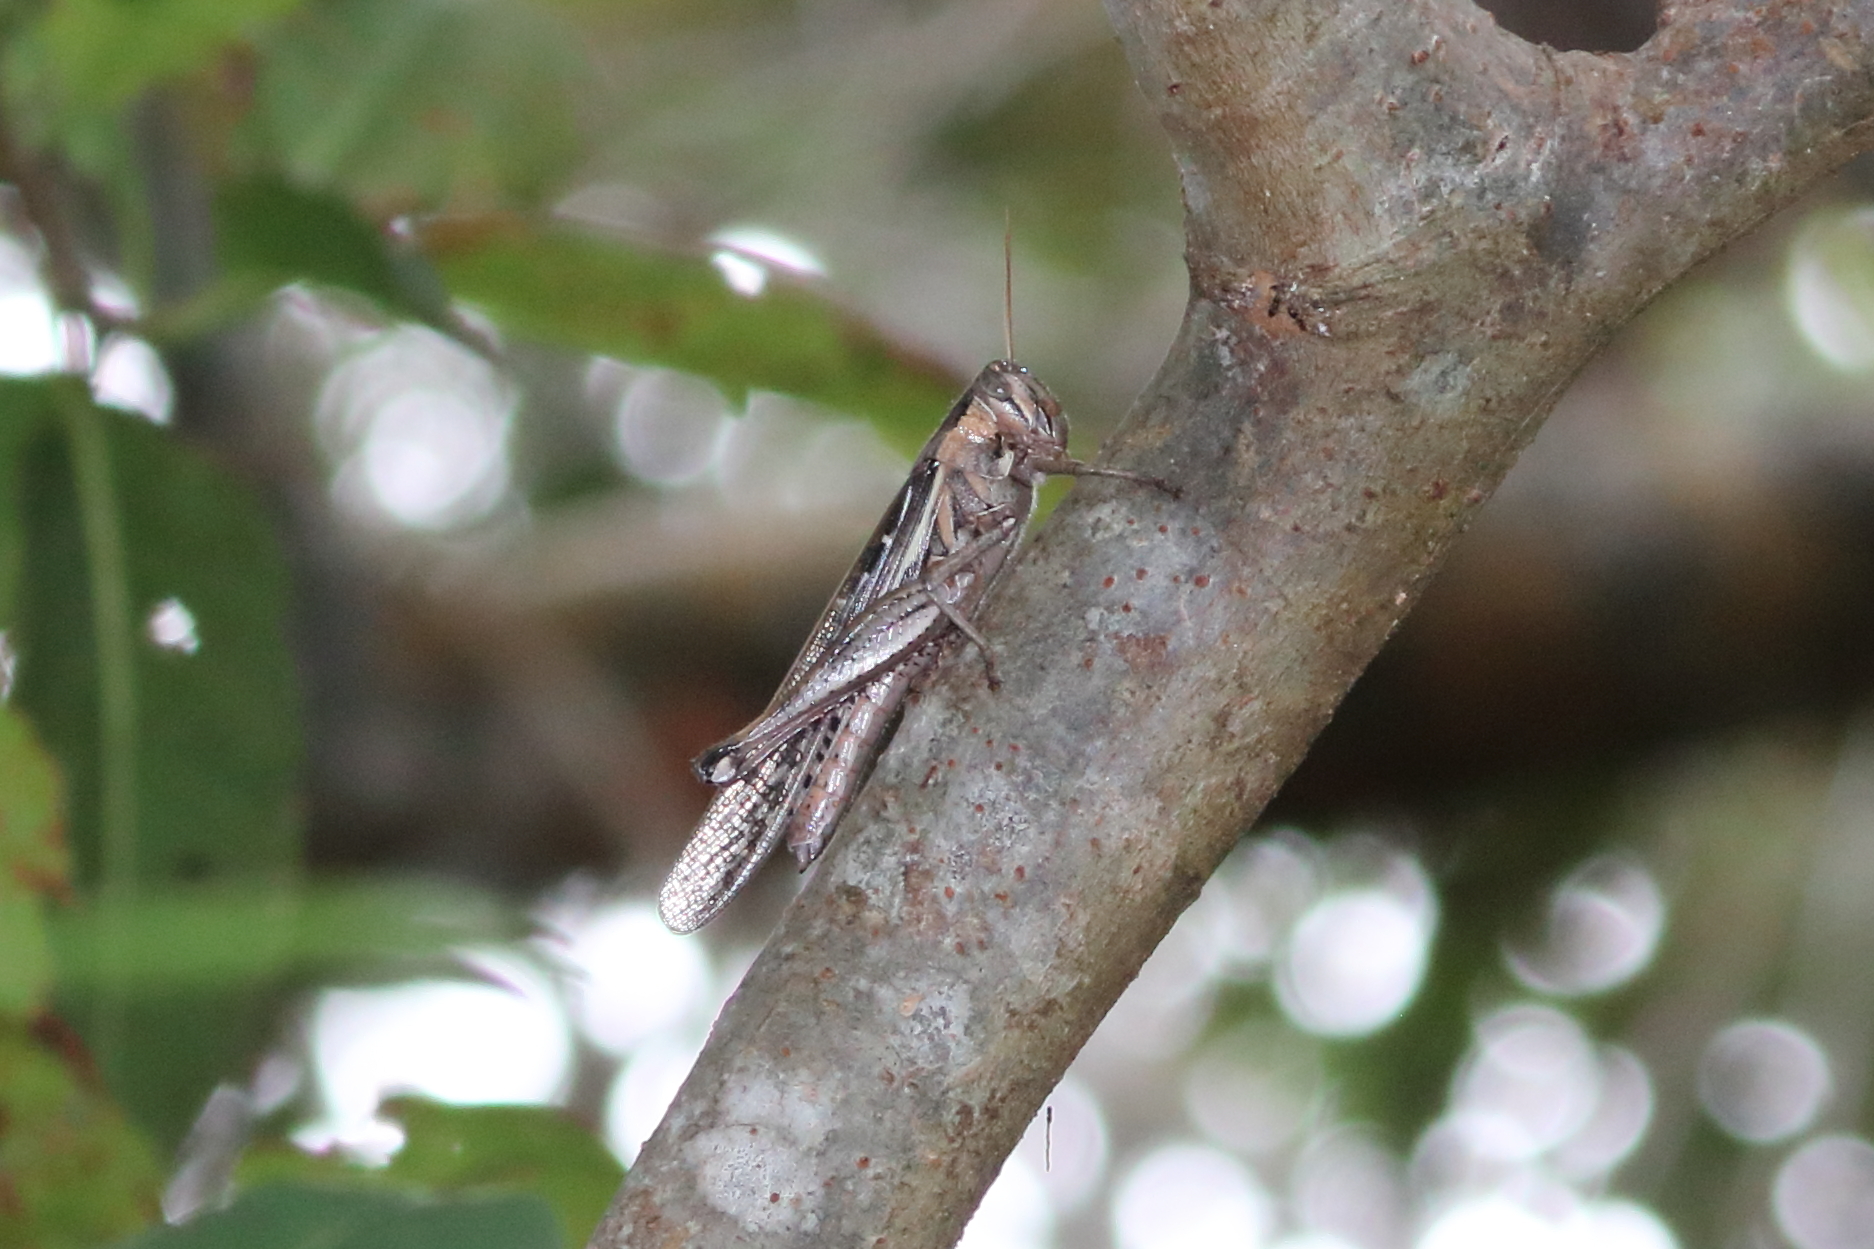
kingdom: Animalia
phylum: Arthropoda
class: Insecta
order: Orthoptera
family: Acrididae
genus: Schistocerca
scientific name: Schistocerca americana
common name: American bird locust
